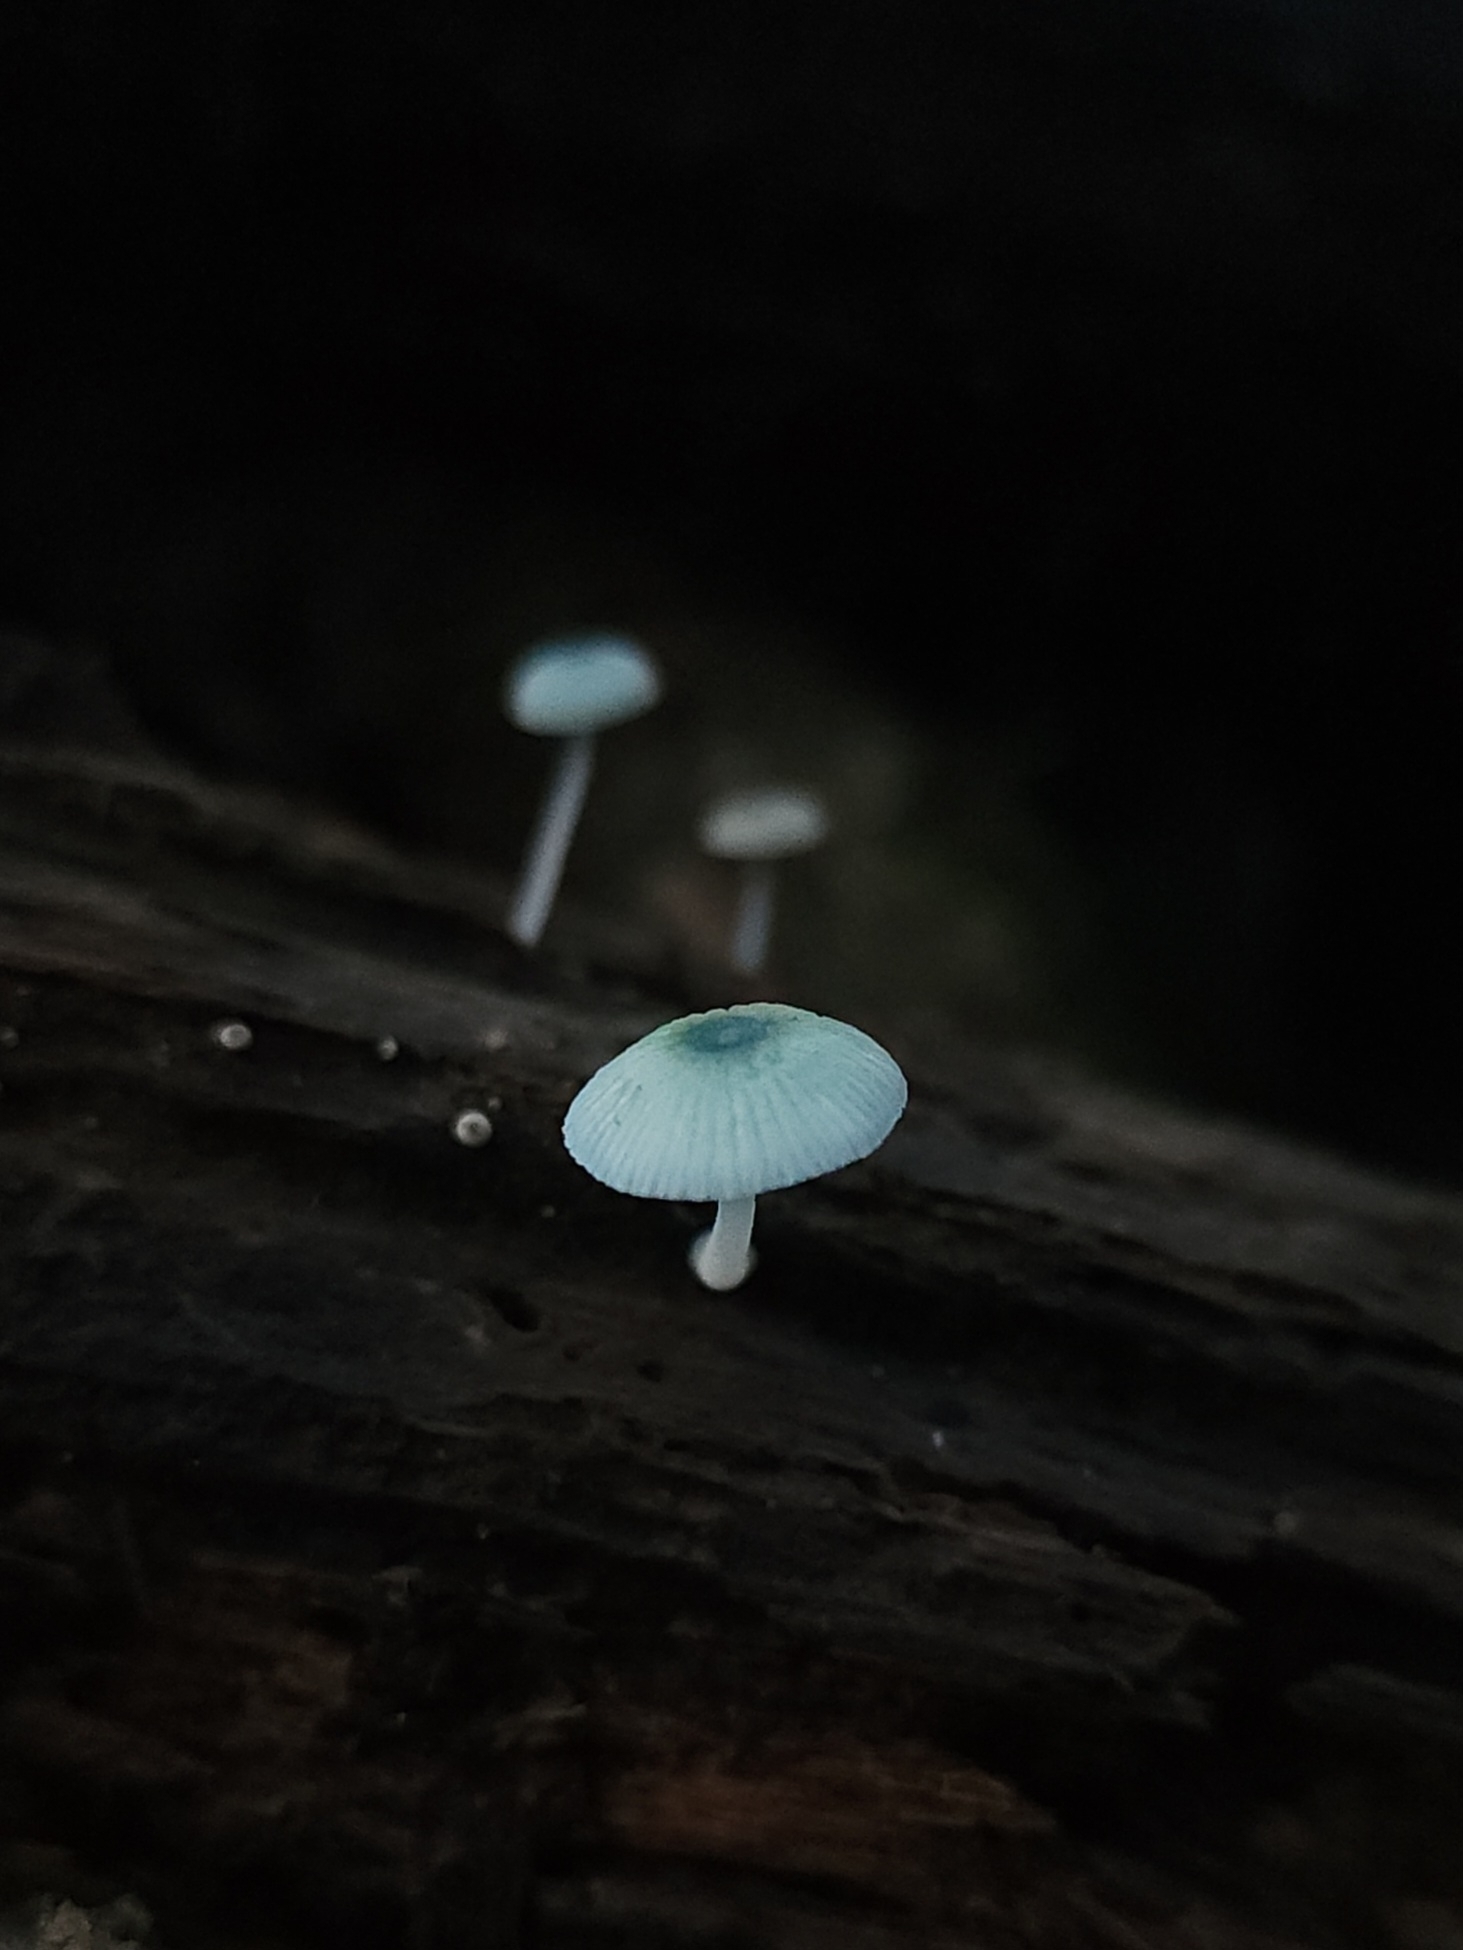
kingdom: Fungi
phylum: Basidiomycota
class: Agaricomycetes
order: Agaricales
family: Mycenaceae
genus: Mycena
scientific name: Mycena interrupta
